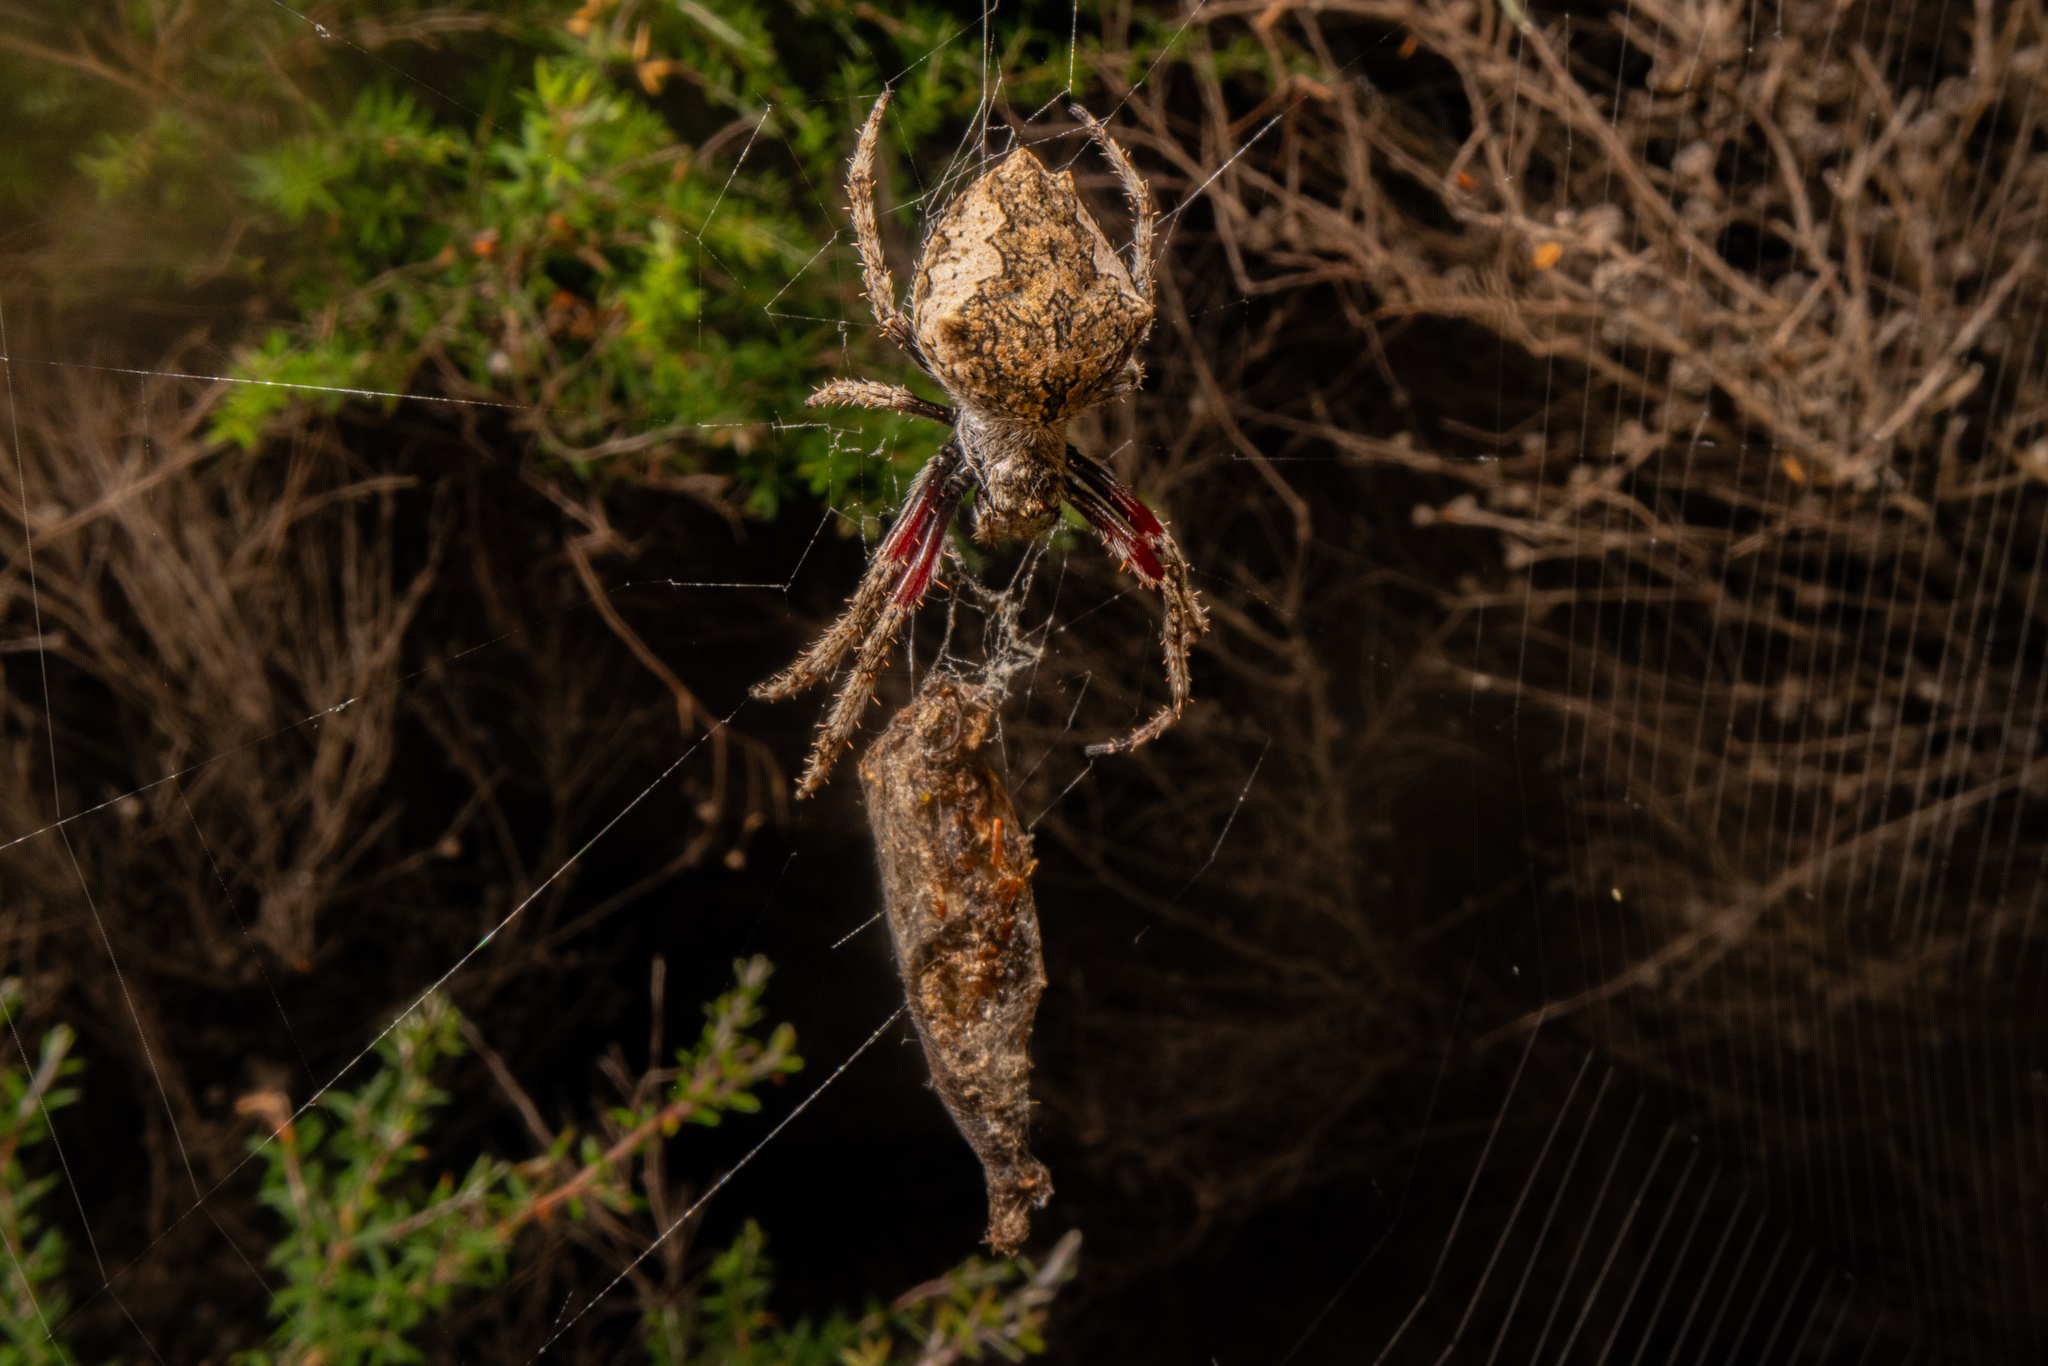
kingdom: Animalia
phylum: Arthropoda
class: Arachnida
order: Araneae
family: Araneidae
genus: Eriophora
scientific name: Eriophora pustulosa
